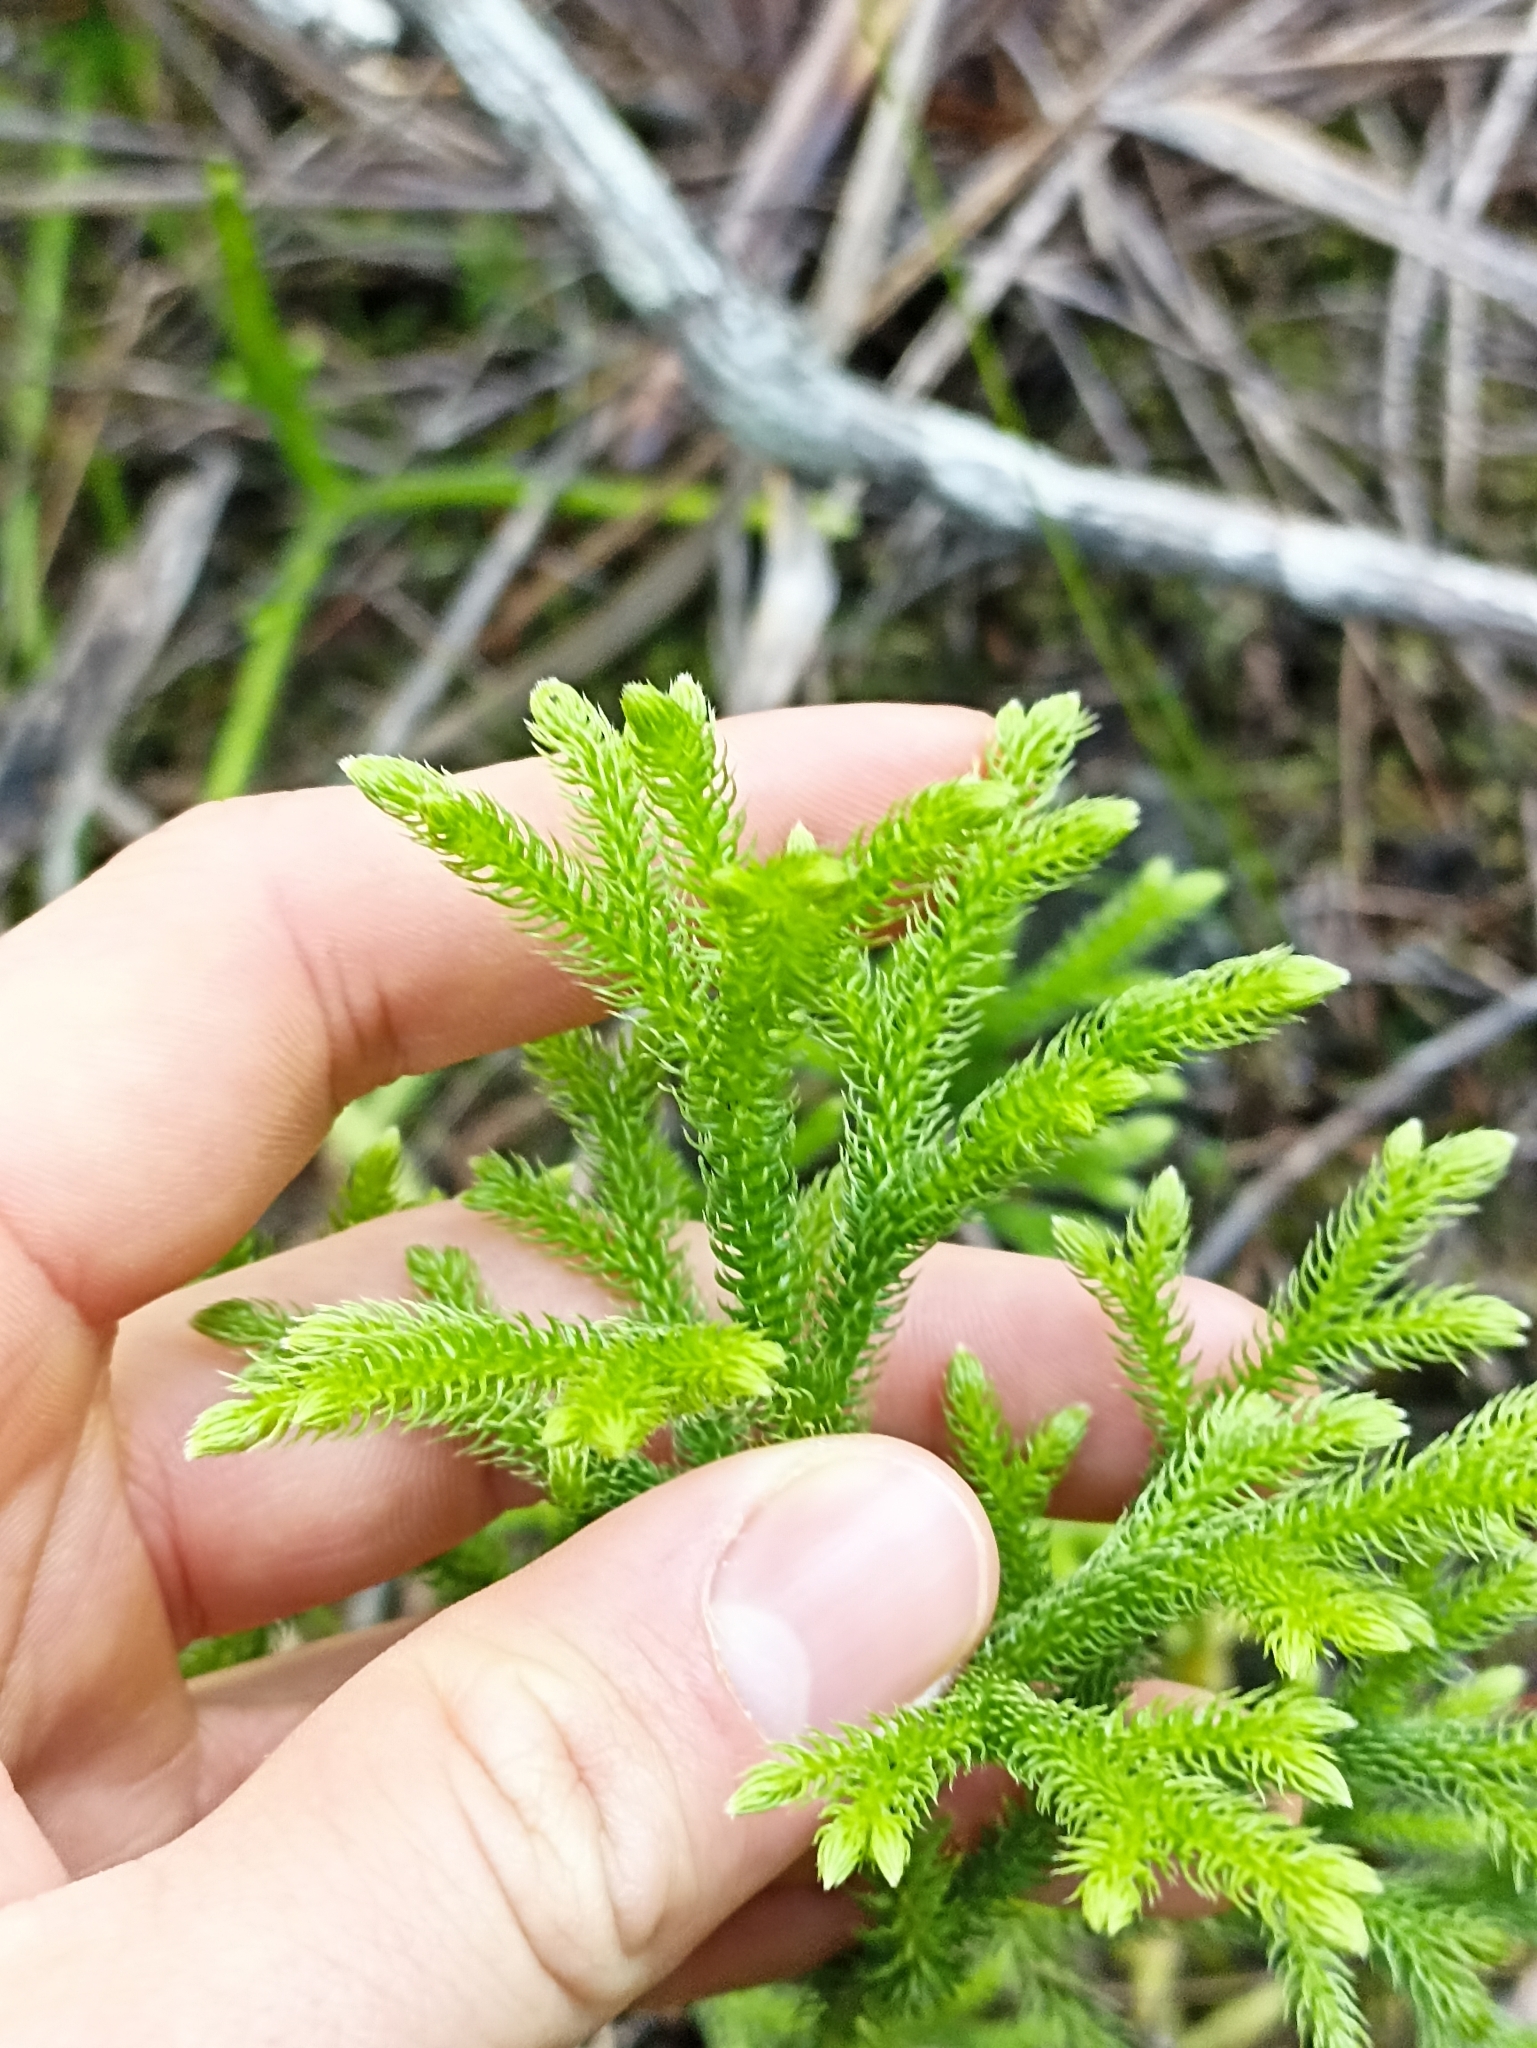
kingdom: Plantae
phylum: Tracheophyta
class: Lycopodiopsida
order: Lycopodiales
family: Lycopodiaceae
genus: Palhinhaea
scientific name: Palhinhaea cernua
